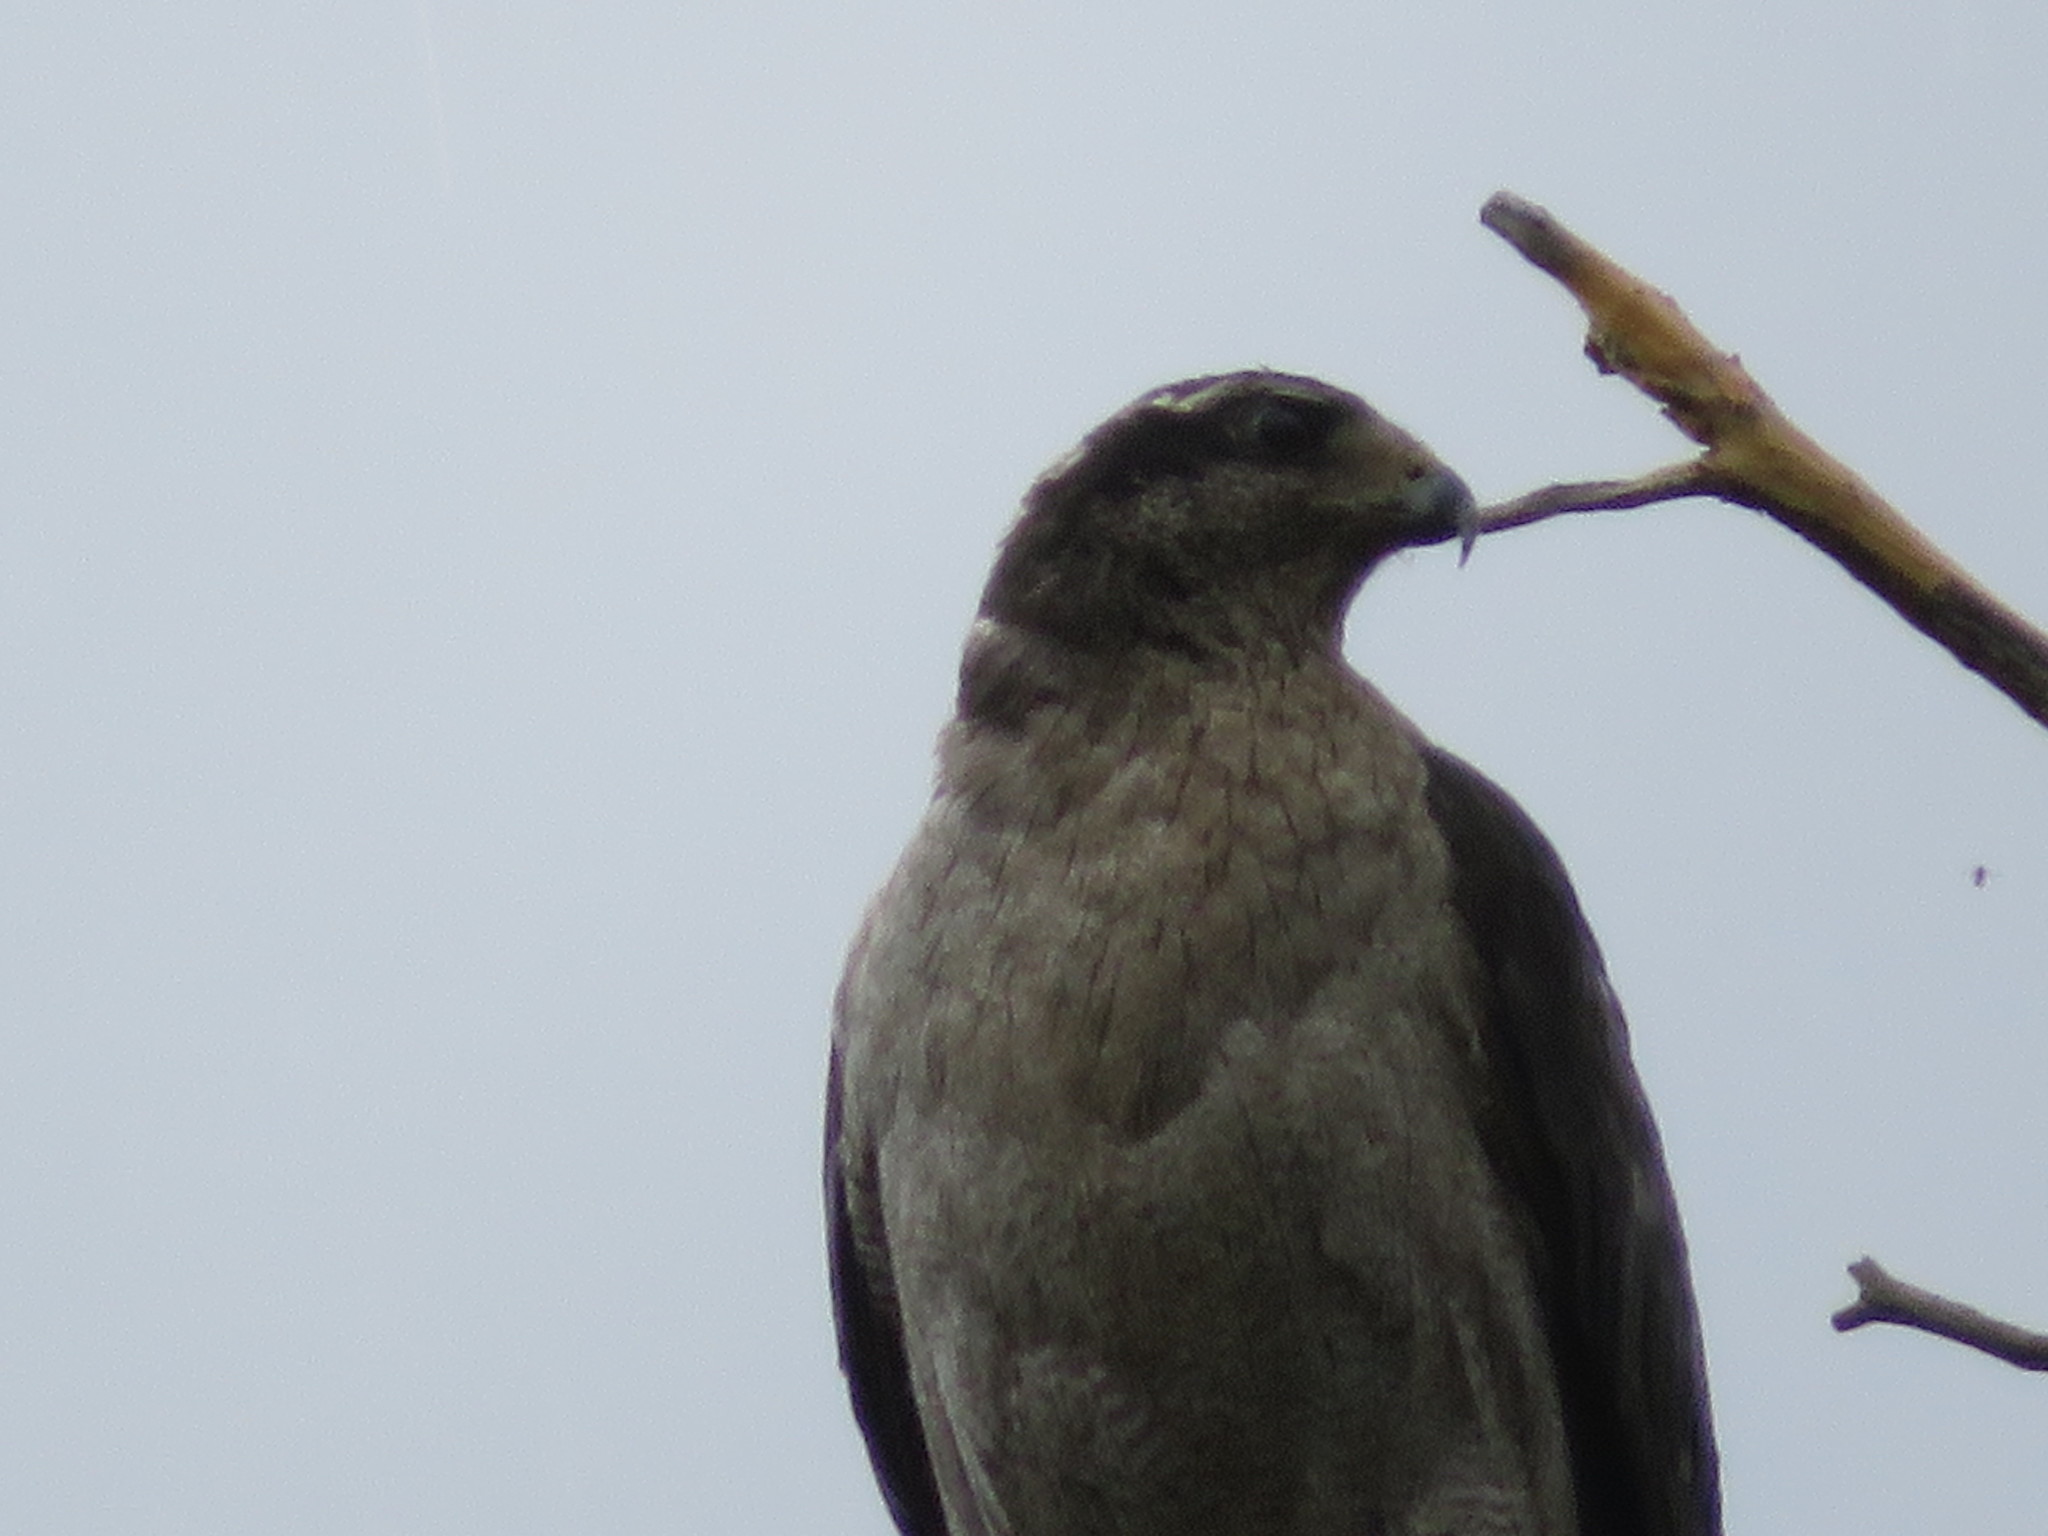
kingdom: Animalia
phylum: Chordata
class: Aves
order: Accipitriformes
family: Accipitridae
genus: Accipiter
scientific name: Accipiter gentilis
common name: Northern goshawk
